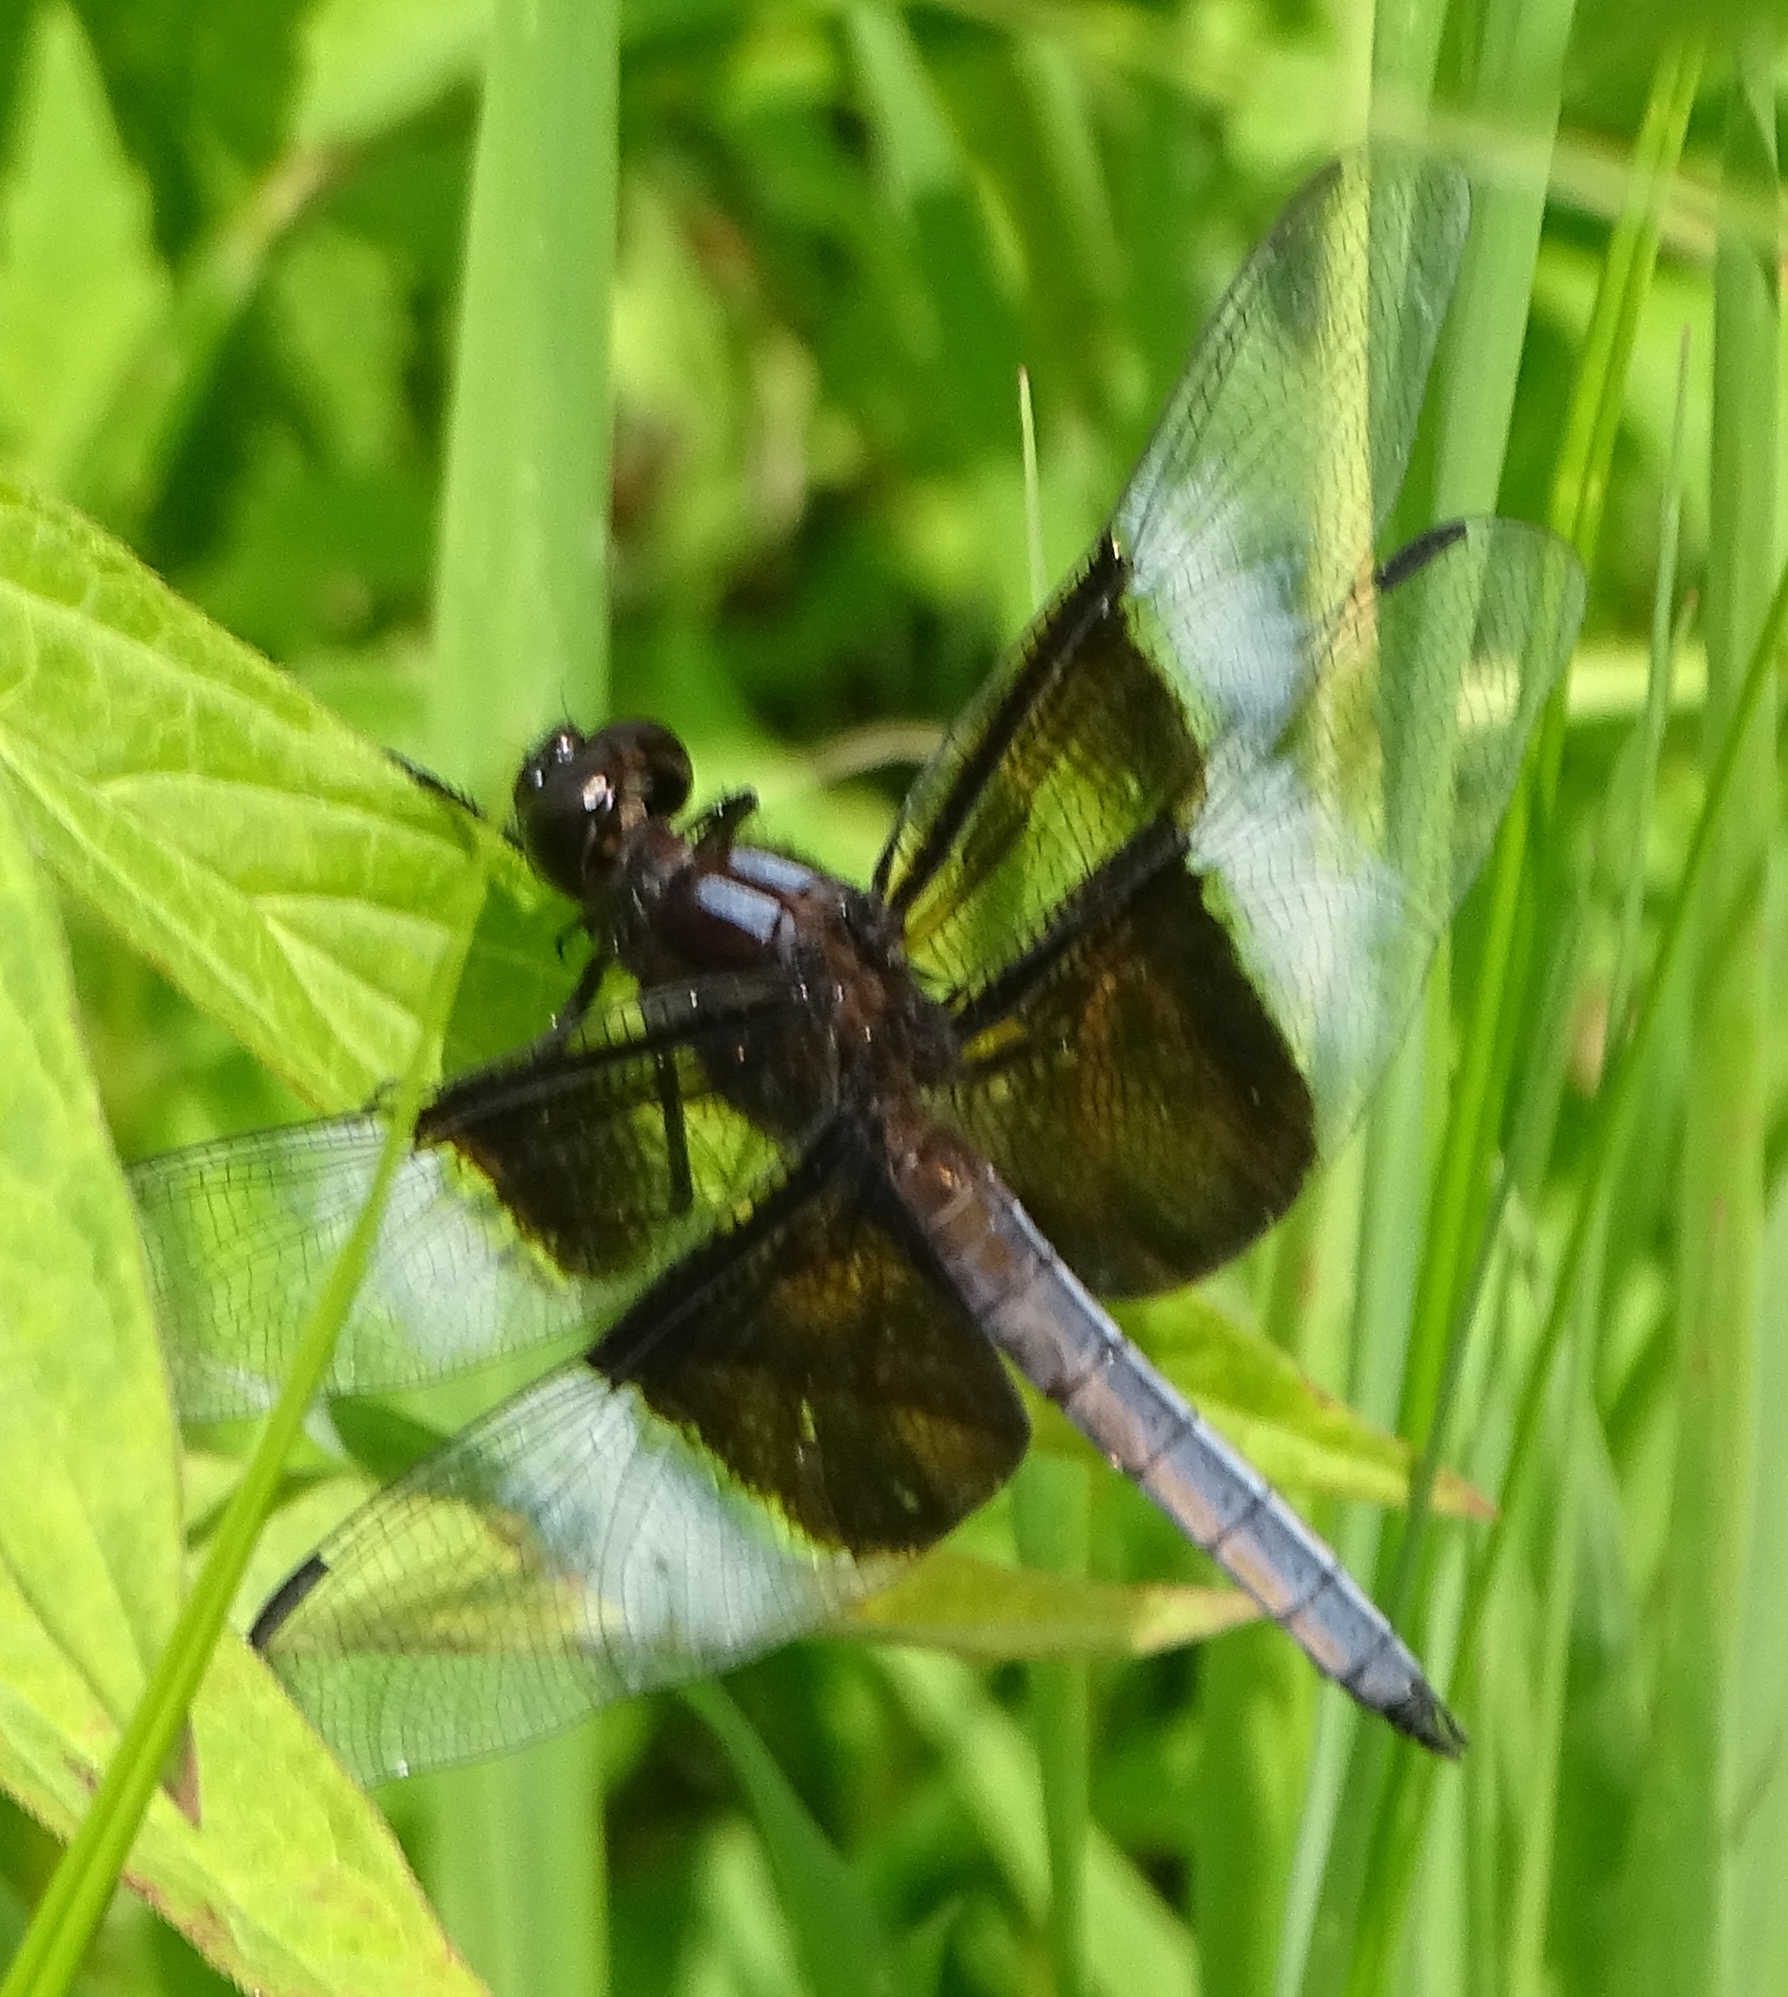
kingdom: Animalia
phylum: Arthropoda
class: Insecta
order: Odonata
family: Libellulidae
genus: Libellula
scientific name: Libellula luctuosa
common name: Widow skimmer
